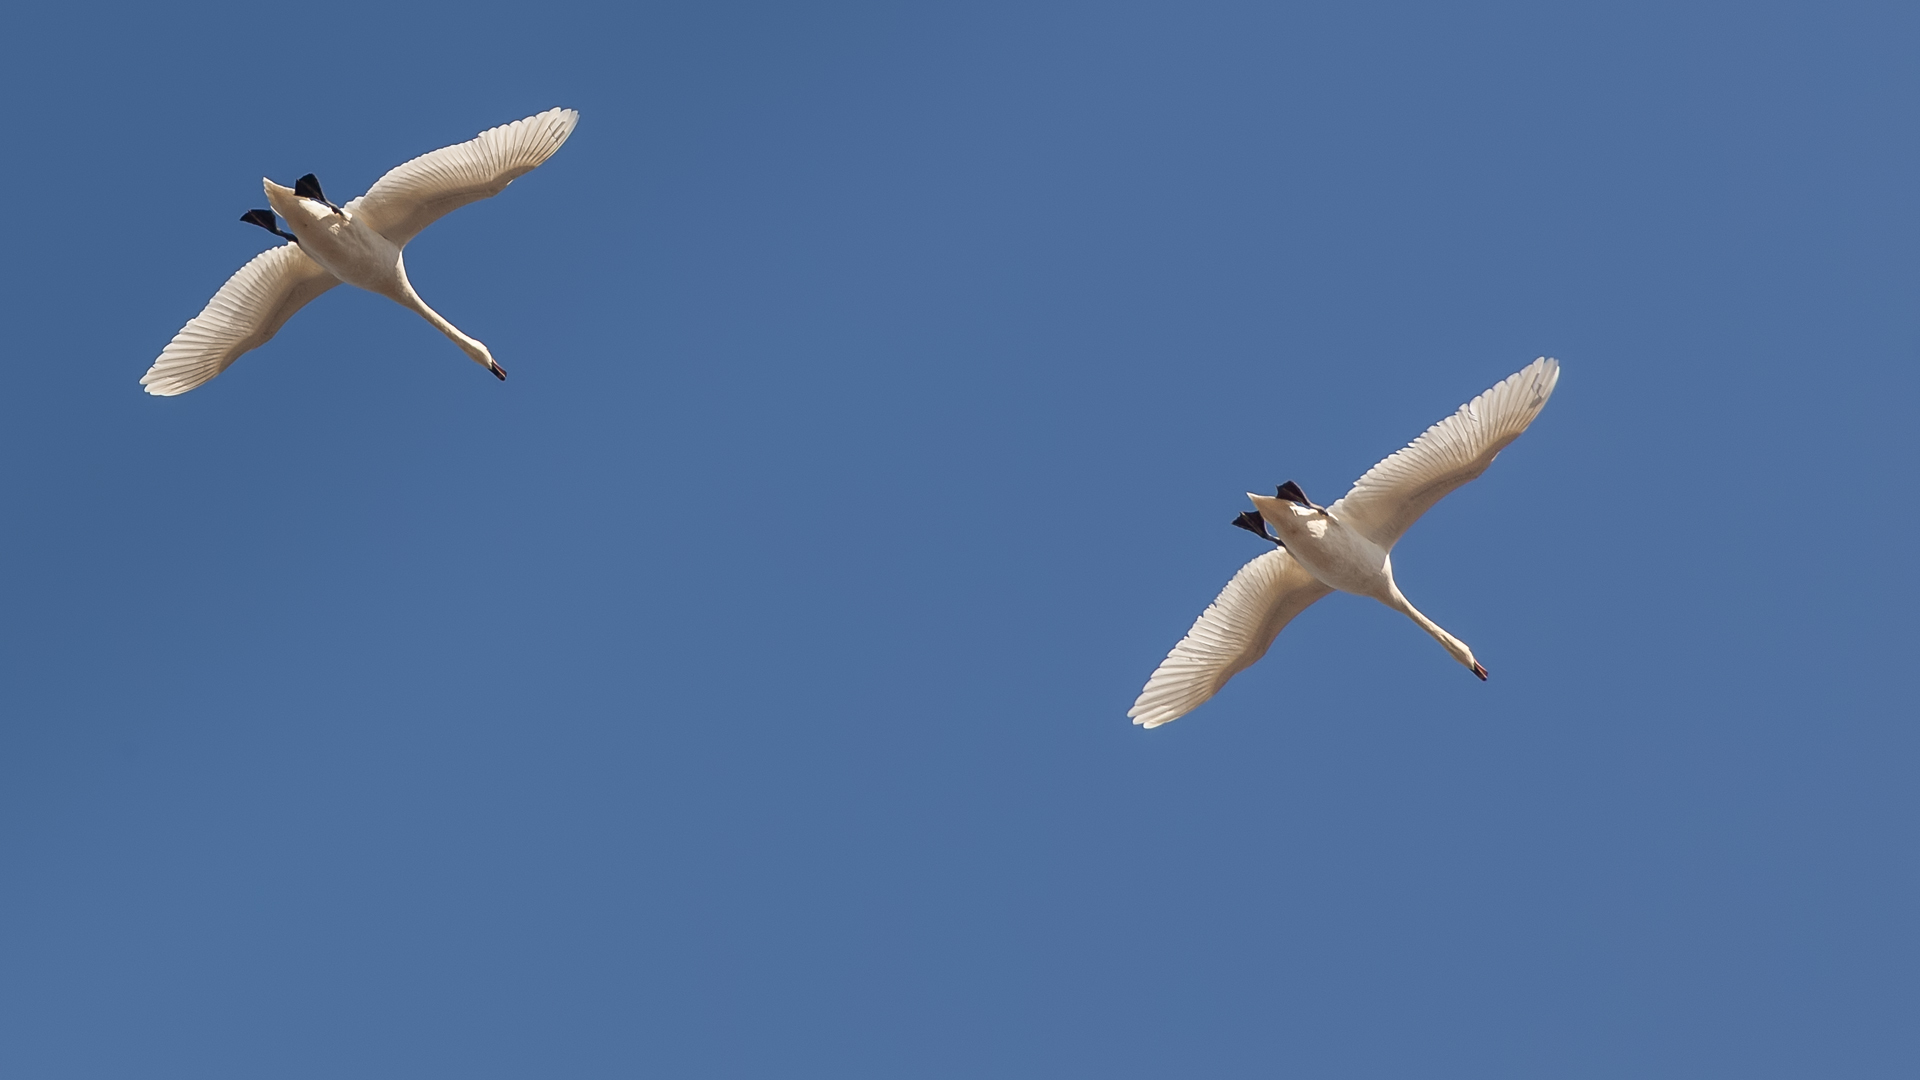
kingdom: Animalia
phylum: Chordata
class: Aves
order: Anseriformes
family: Anatidae
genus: Cygnus
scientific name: Cygnus olor
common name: Mute swan
